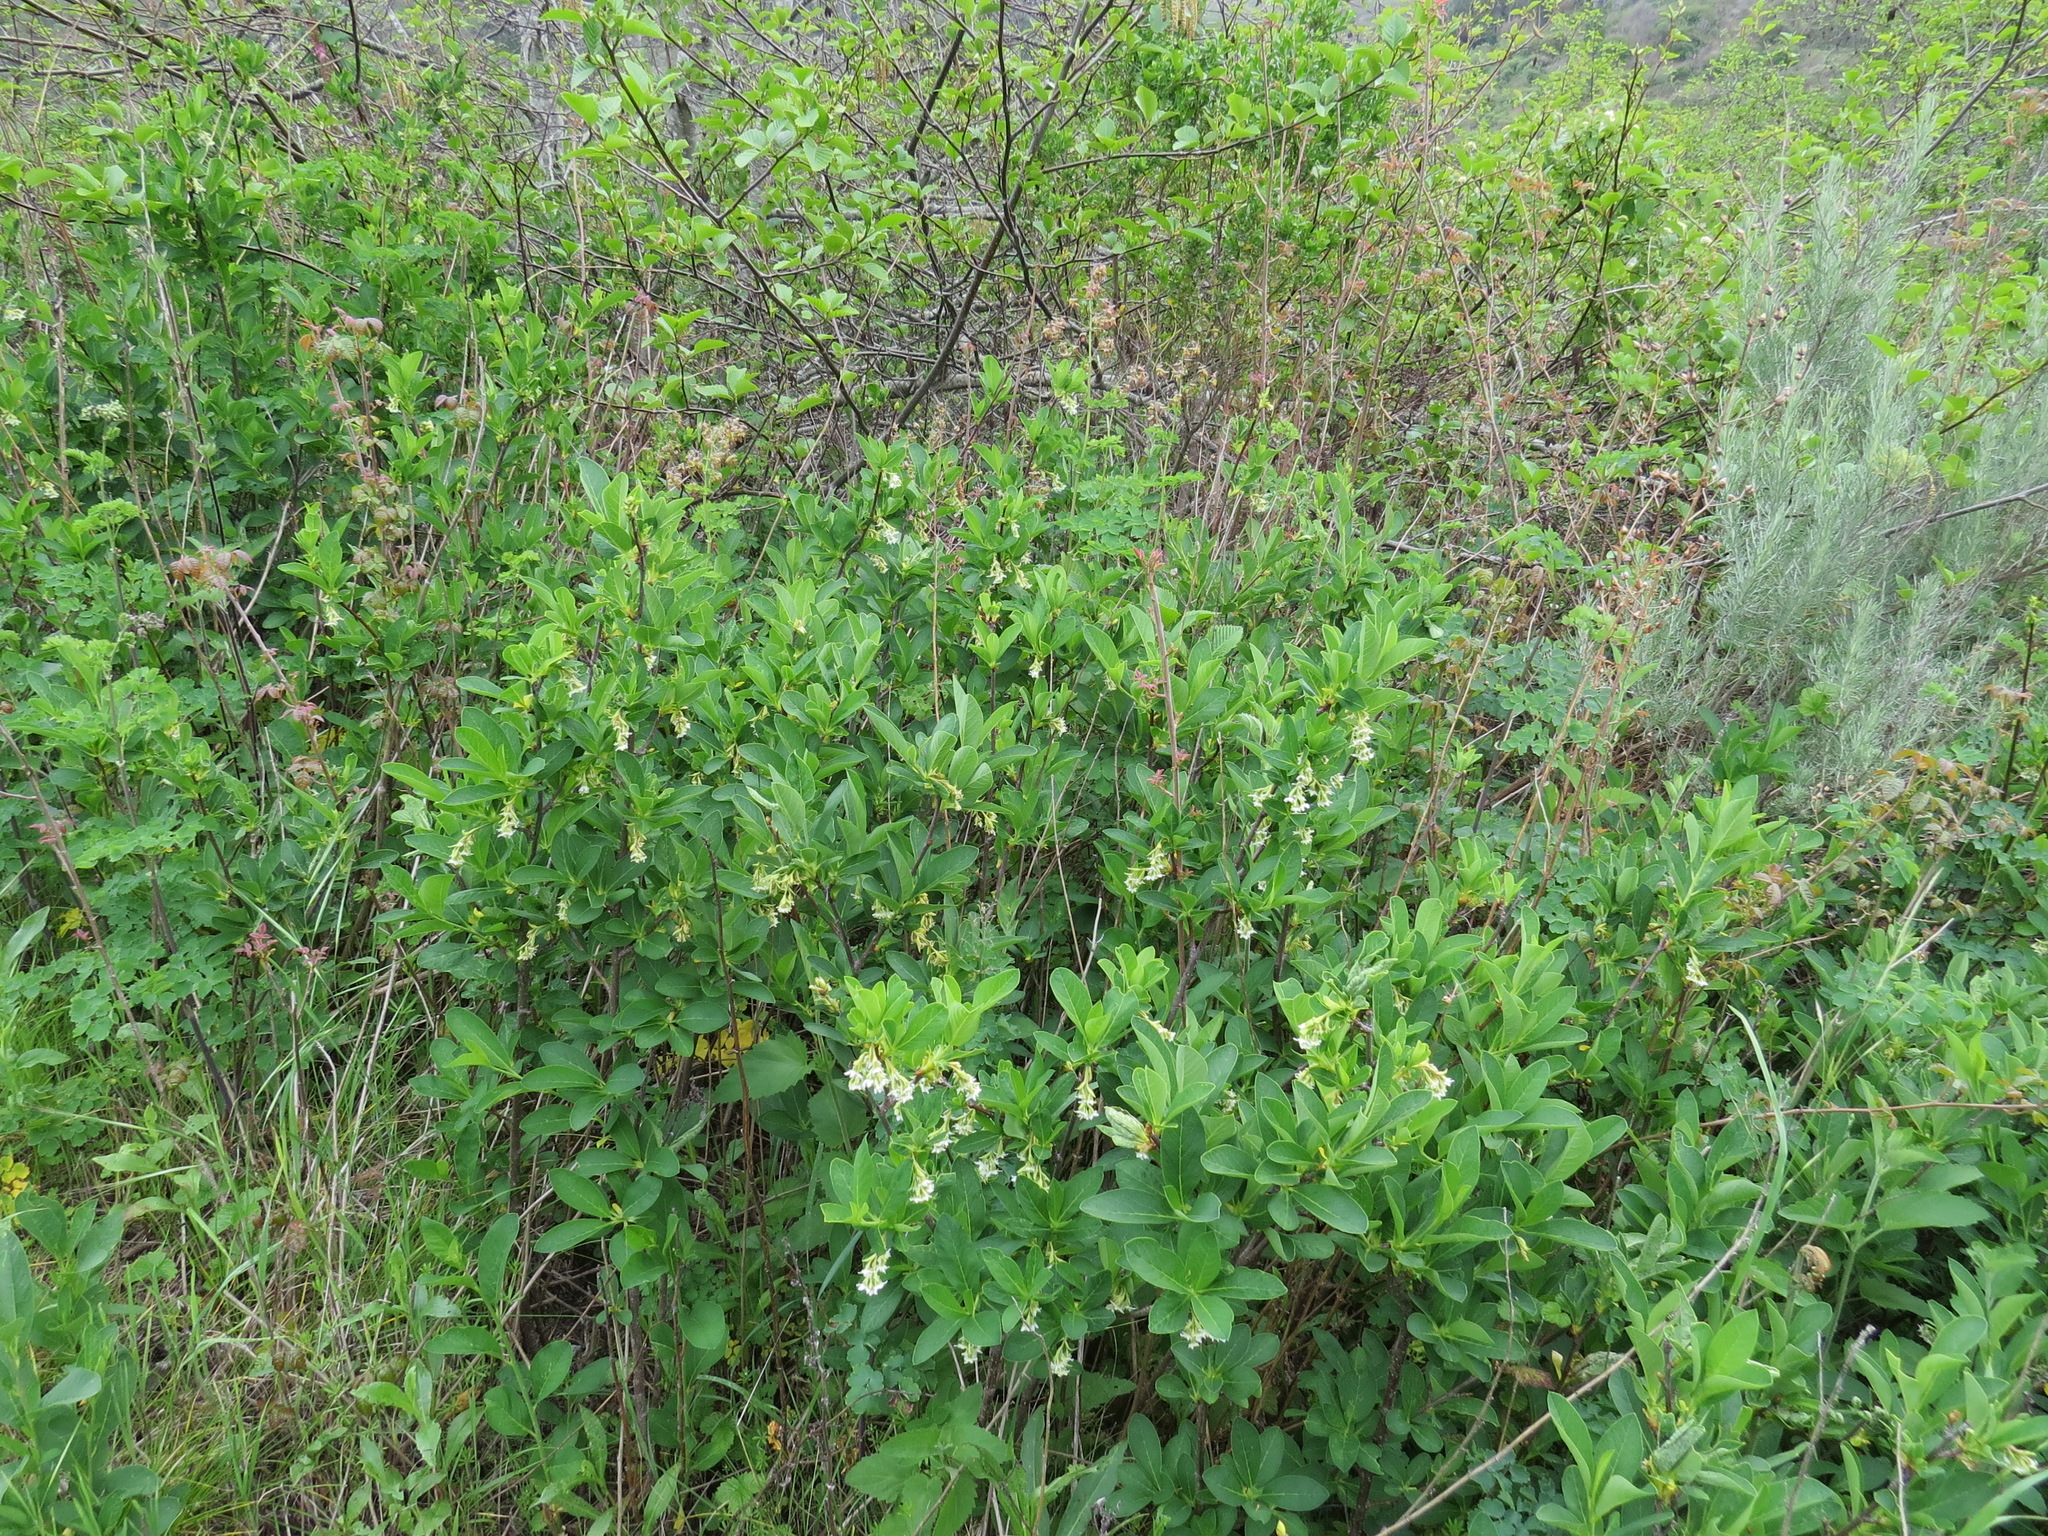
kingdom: Plantae
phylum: Tracheophyta
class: Magnoliopsida
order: Rosales
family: Rosaceae
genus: Oemleria
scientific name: Oemleria cerasiformis
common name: Osoberry
